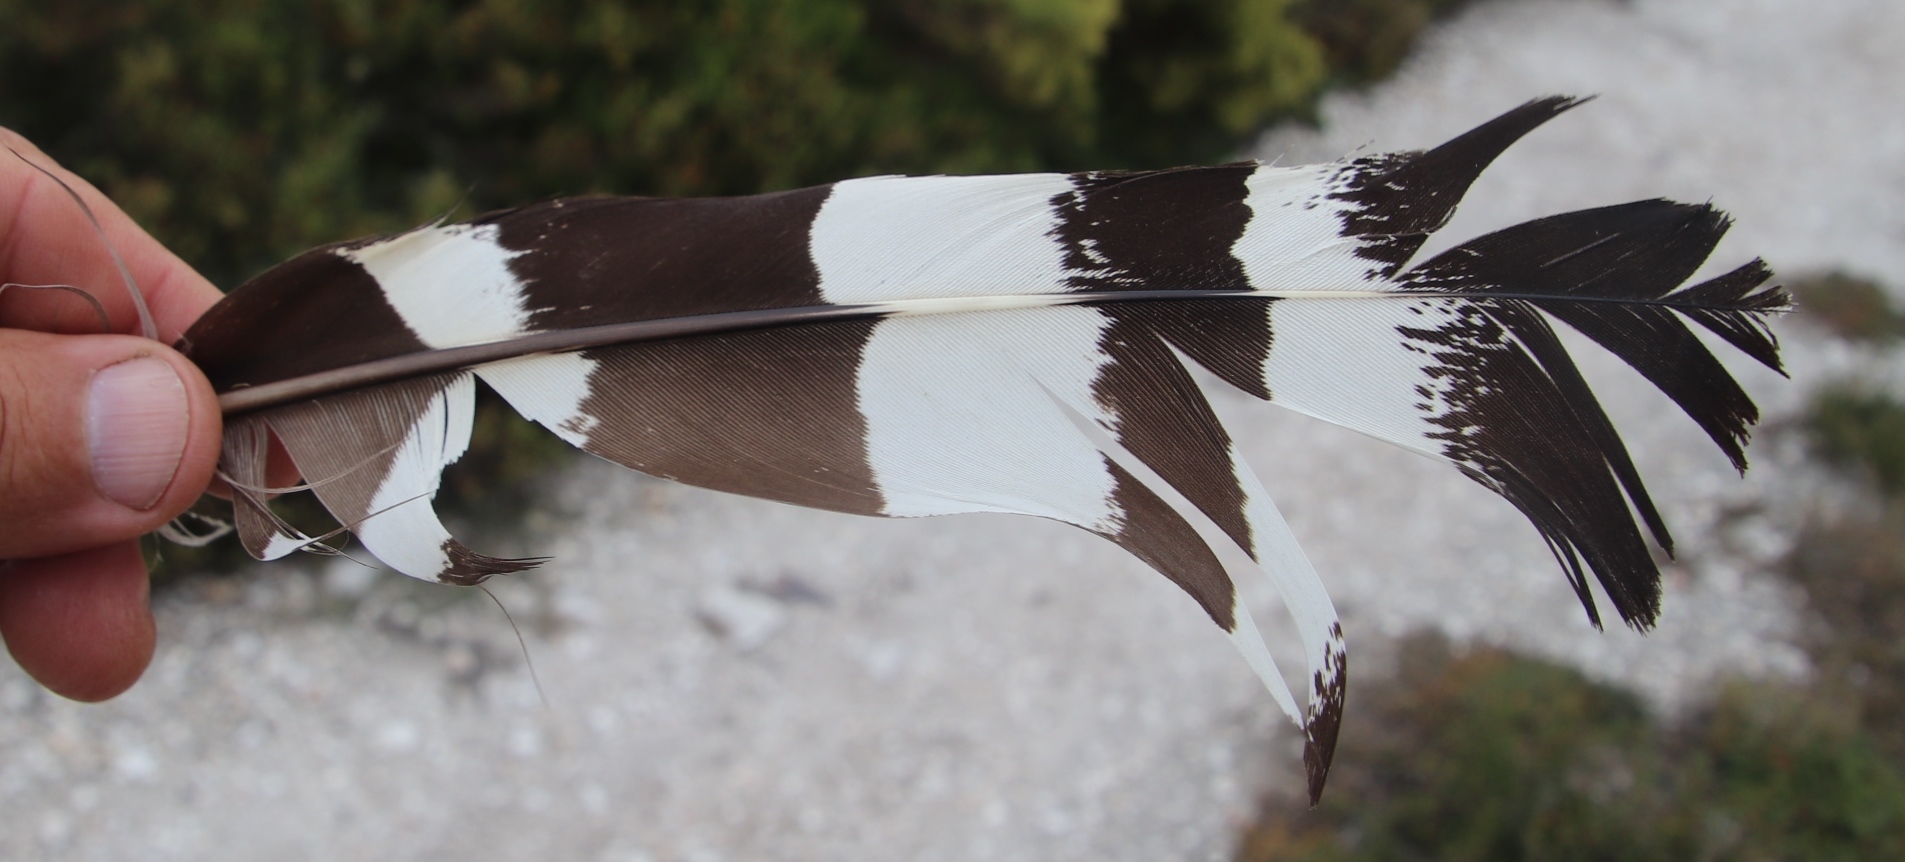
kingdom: Animalia
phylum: Chordata
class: Aves
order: Otidiformes
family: Otididae
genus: Neotis
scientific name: Neotis denhami
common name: Denham's bustard
